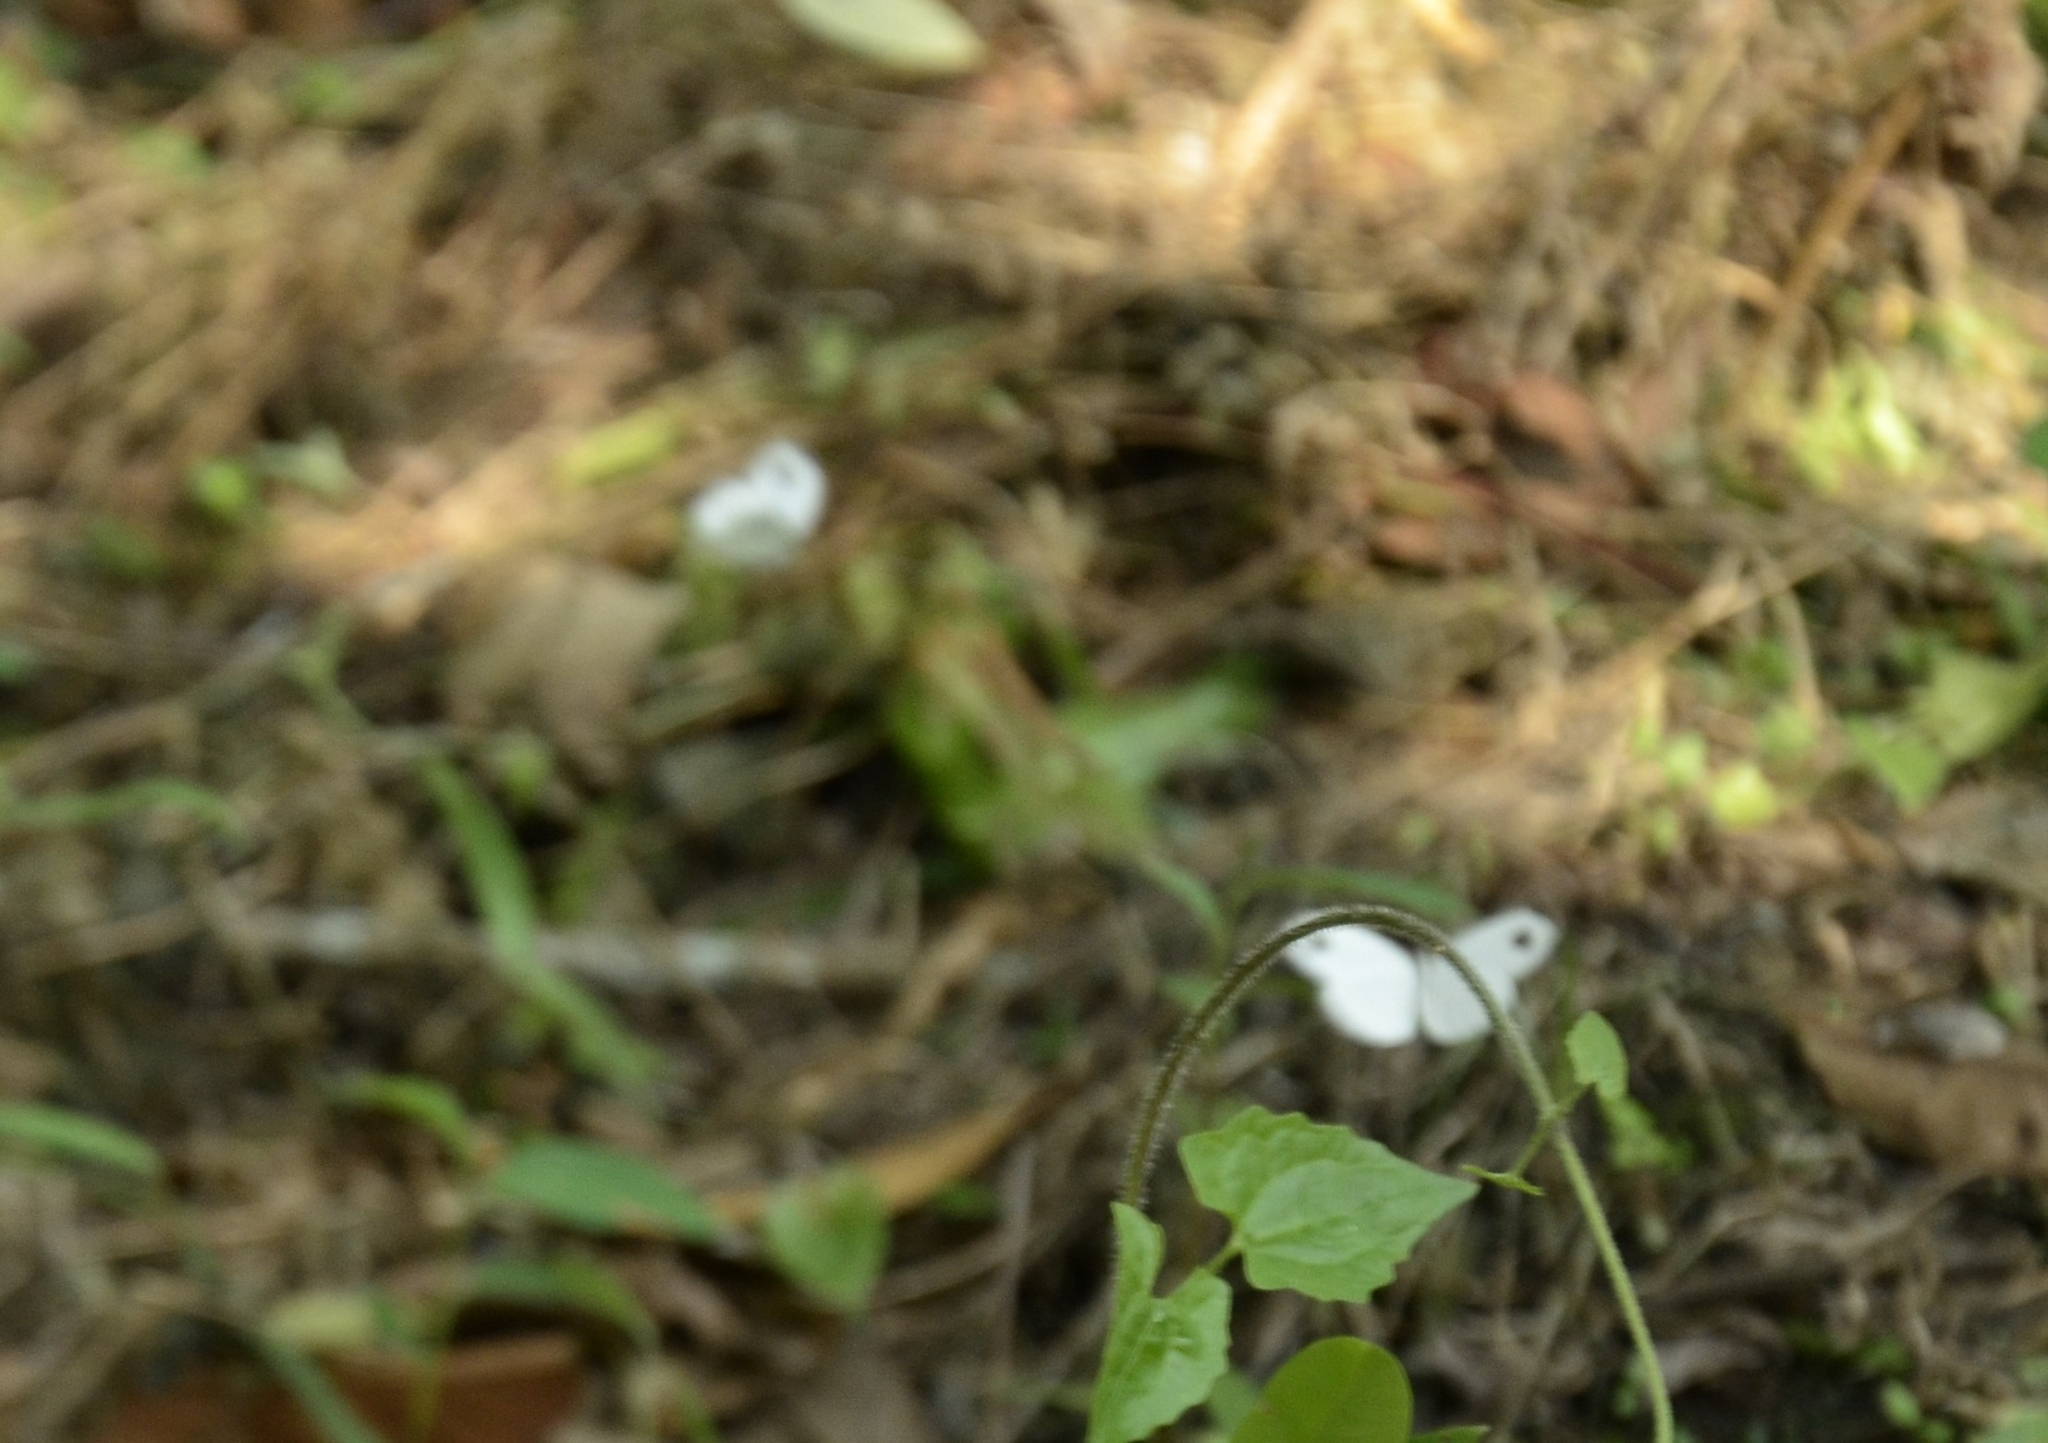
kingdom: Animalia
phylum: Arthropoda
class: Insecta
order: Lepidoptera
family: Pieridae
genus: Leptosia
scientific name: Leptosia nina
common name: Psyche
